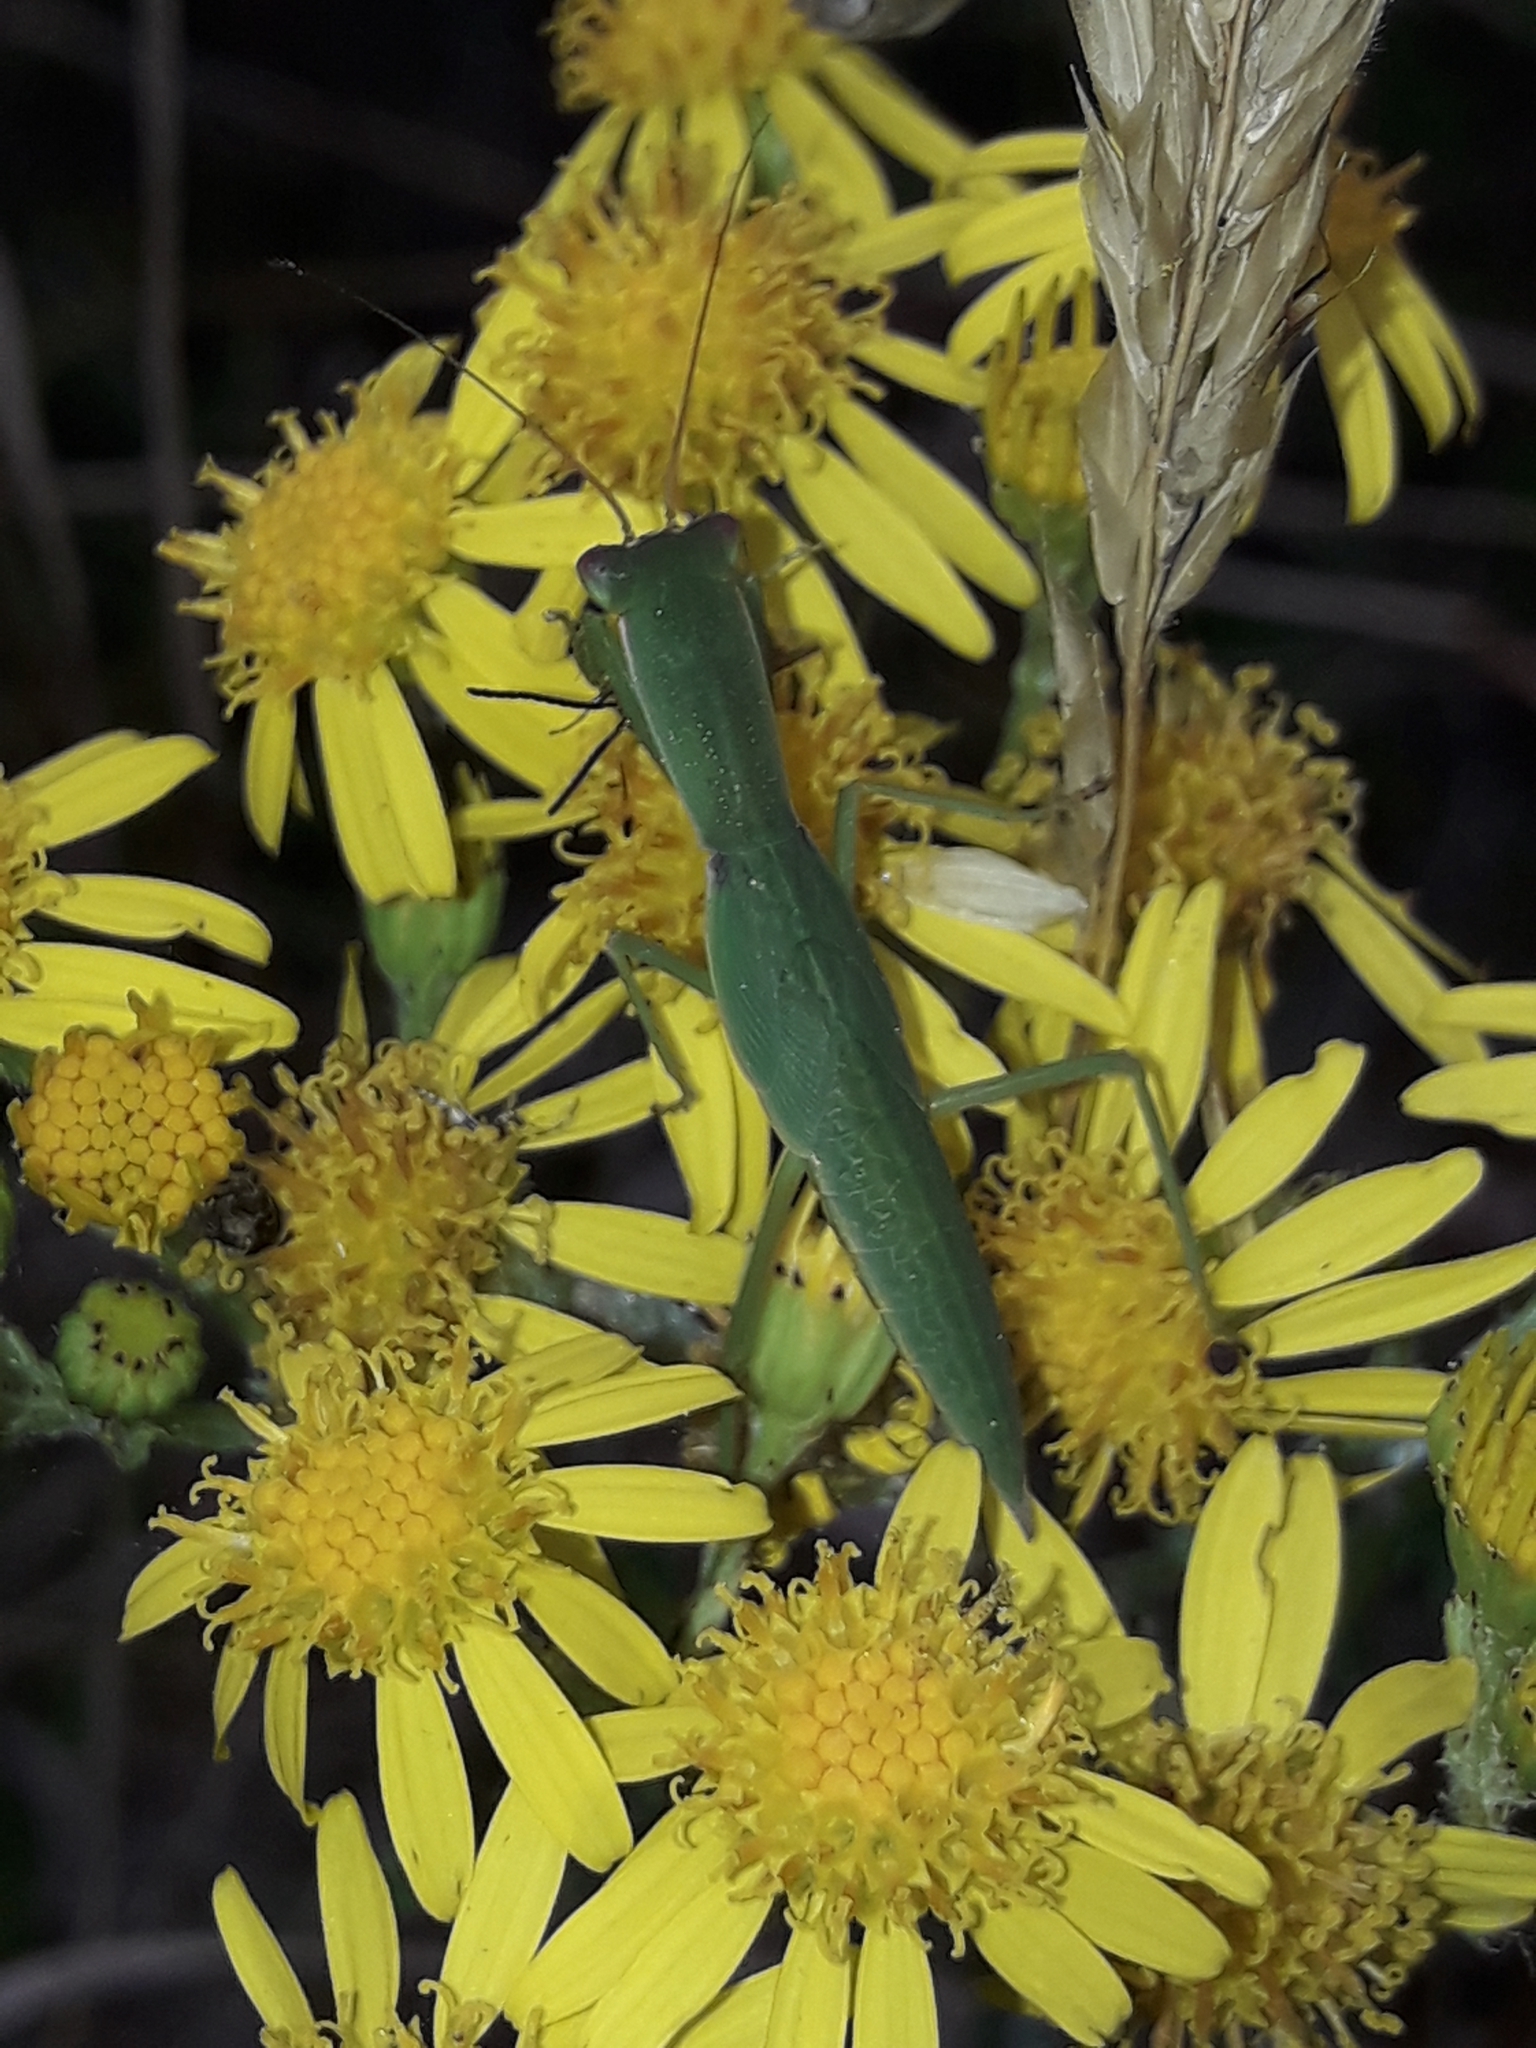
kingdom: Animalia
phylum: Arthropoda
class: Insecta
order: Mantodea
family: Mantidae
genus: Orthodera
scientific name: Orthodera novaezealandiae
